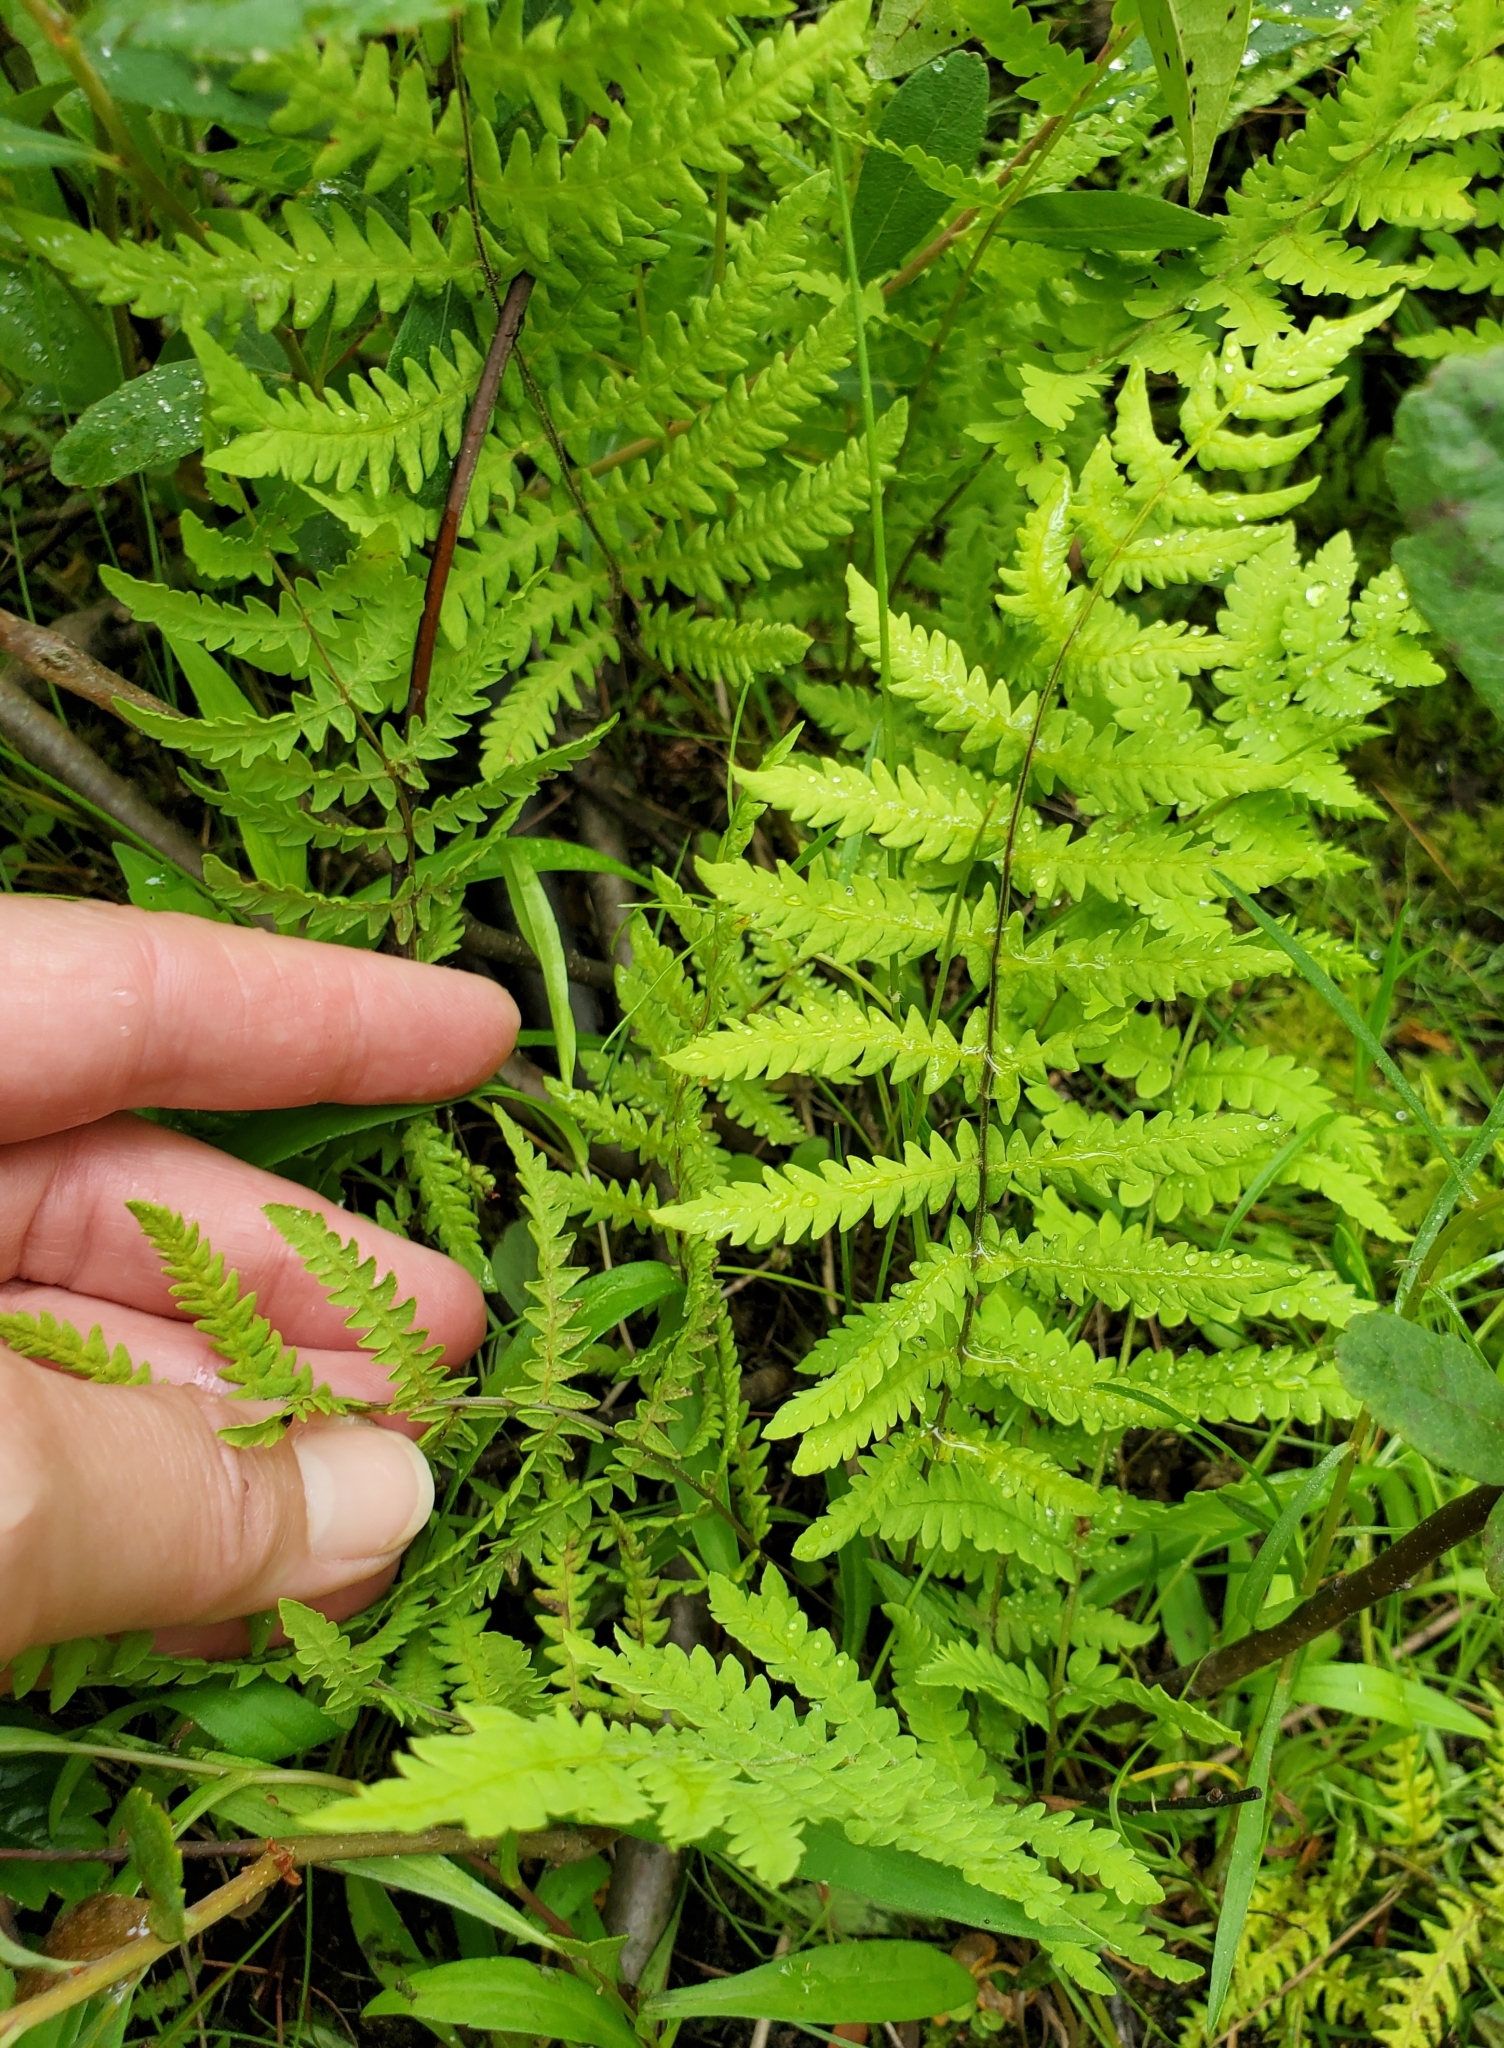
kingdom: Plantae
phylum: Tracheophyta
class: Polypodiopsida
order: Polypodiales
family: Thelypteridaceae
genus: Thelypteris
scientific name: Thelypteris palustris
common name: Marsh fern
